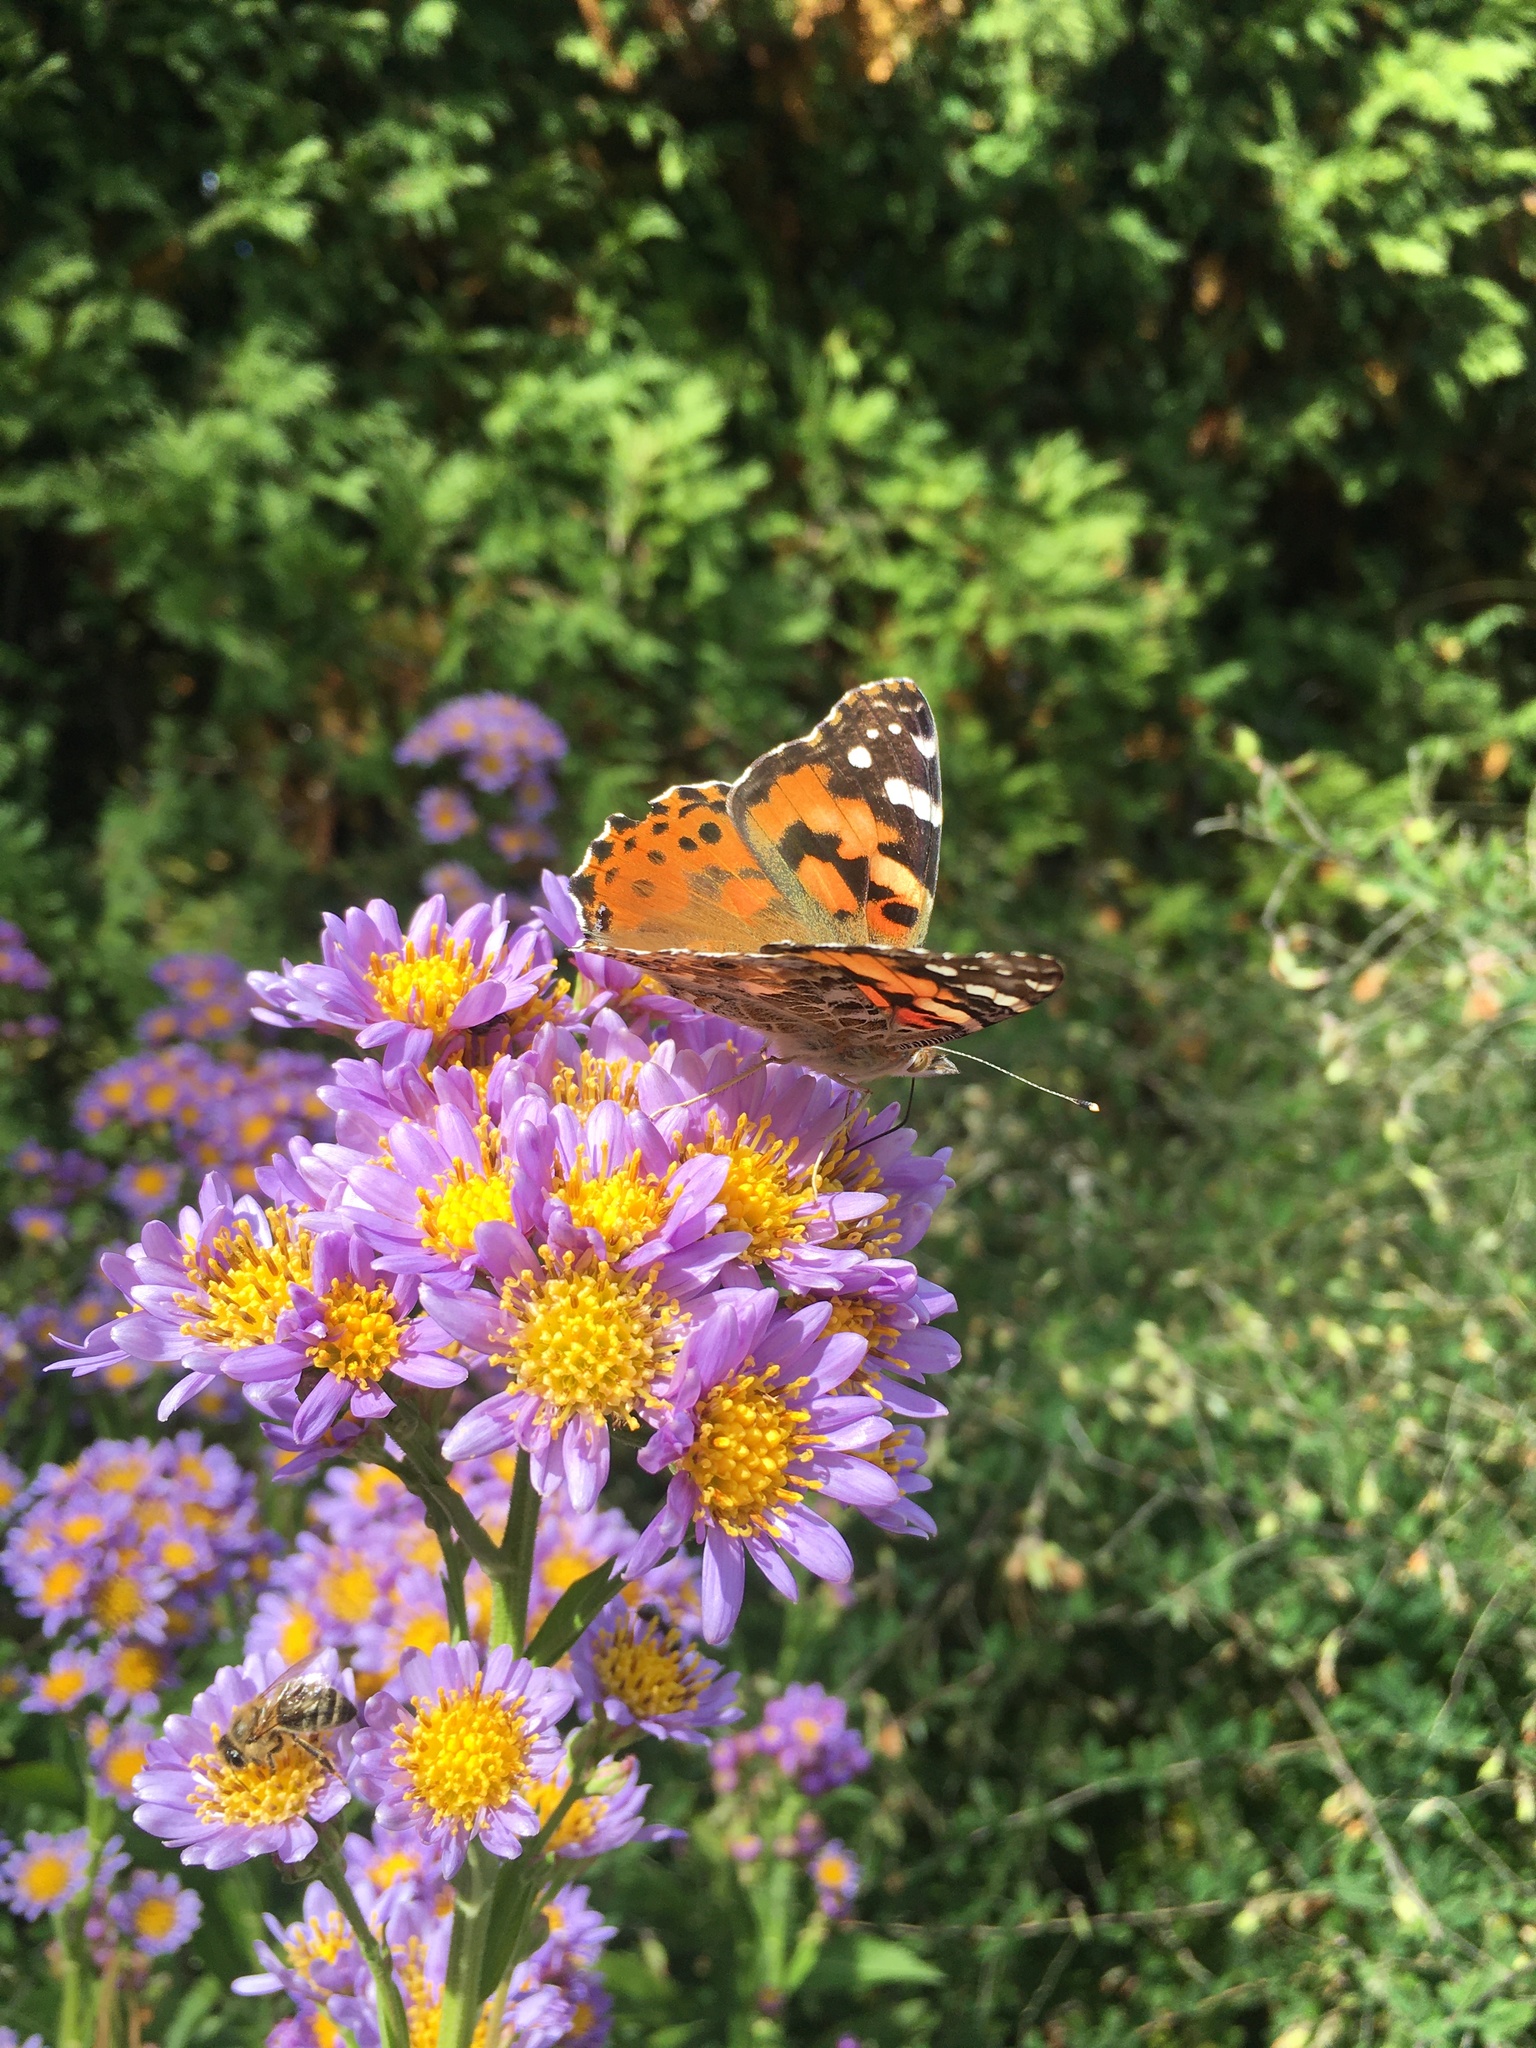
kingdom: Animalia
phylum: Arthropoda
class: Insecta
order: Lepidoptera
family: Nymphalidae
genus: Vanessa
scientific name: Vanessa cardui
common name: Painted lady
